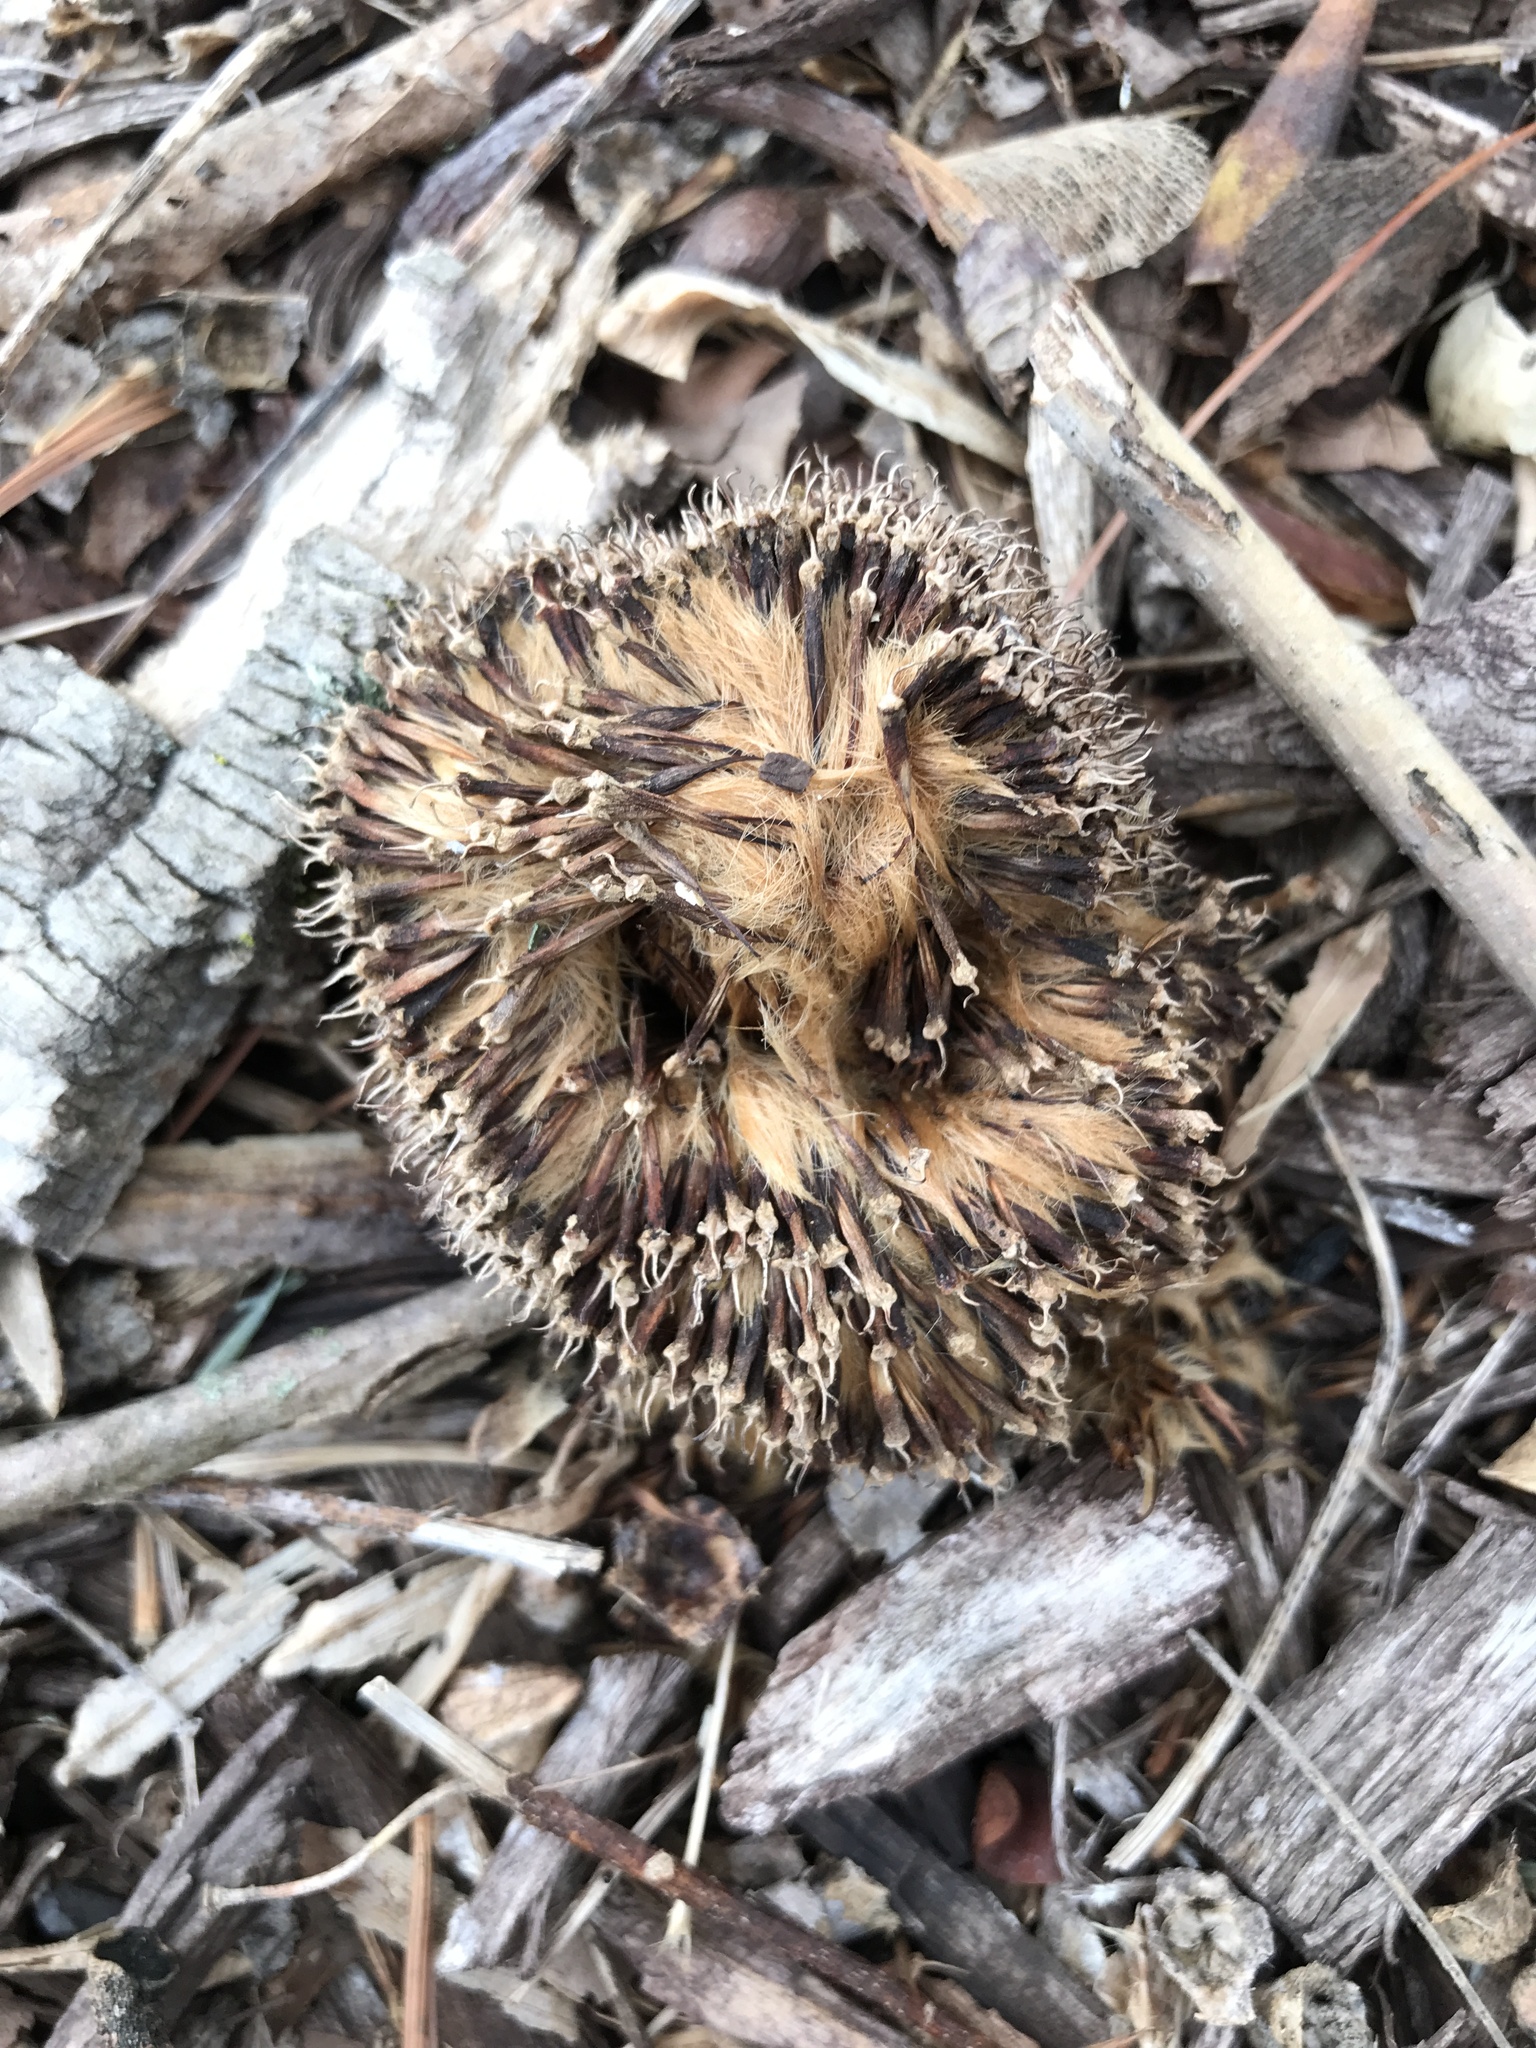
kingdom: Plantae
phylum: Tracheophyta
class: Magnoliopsida
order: Proteales
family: Platanaceae
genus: Platanus
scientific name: Platanus occidentalis
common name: American sycamore
